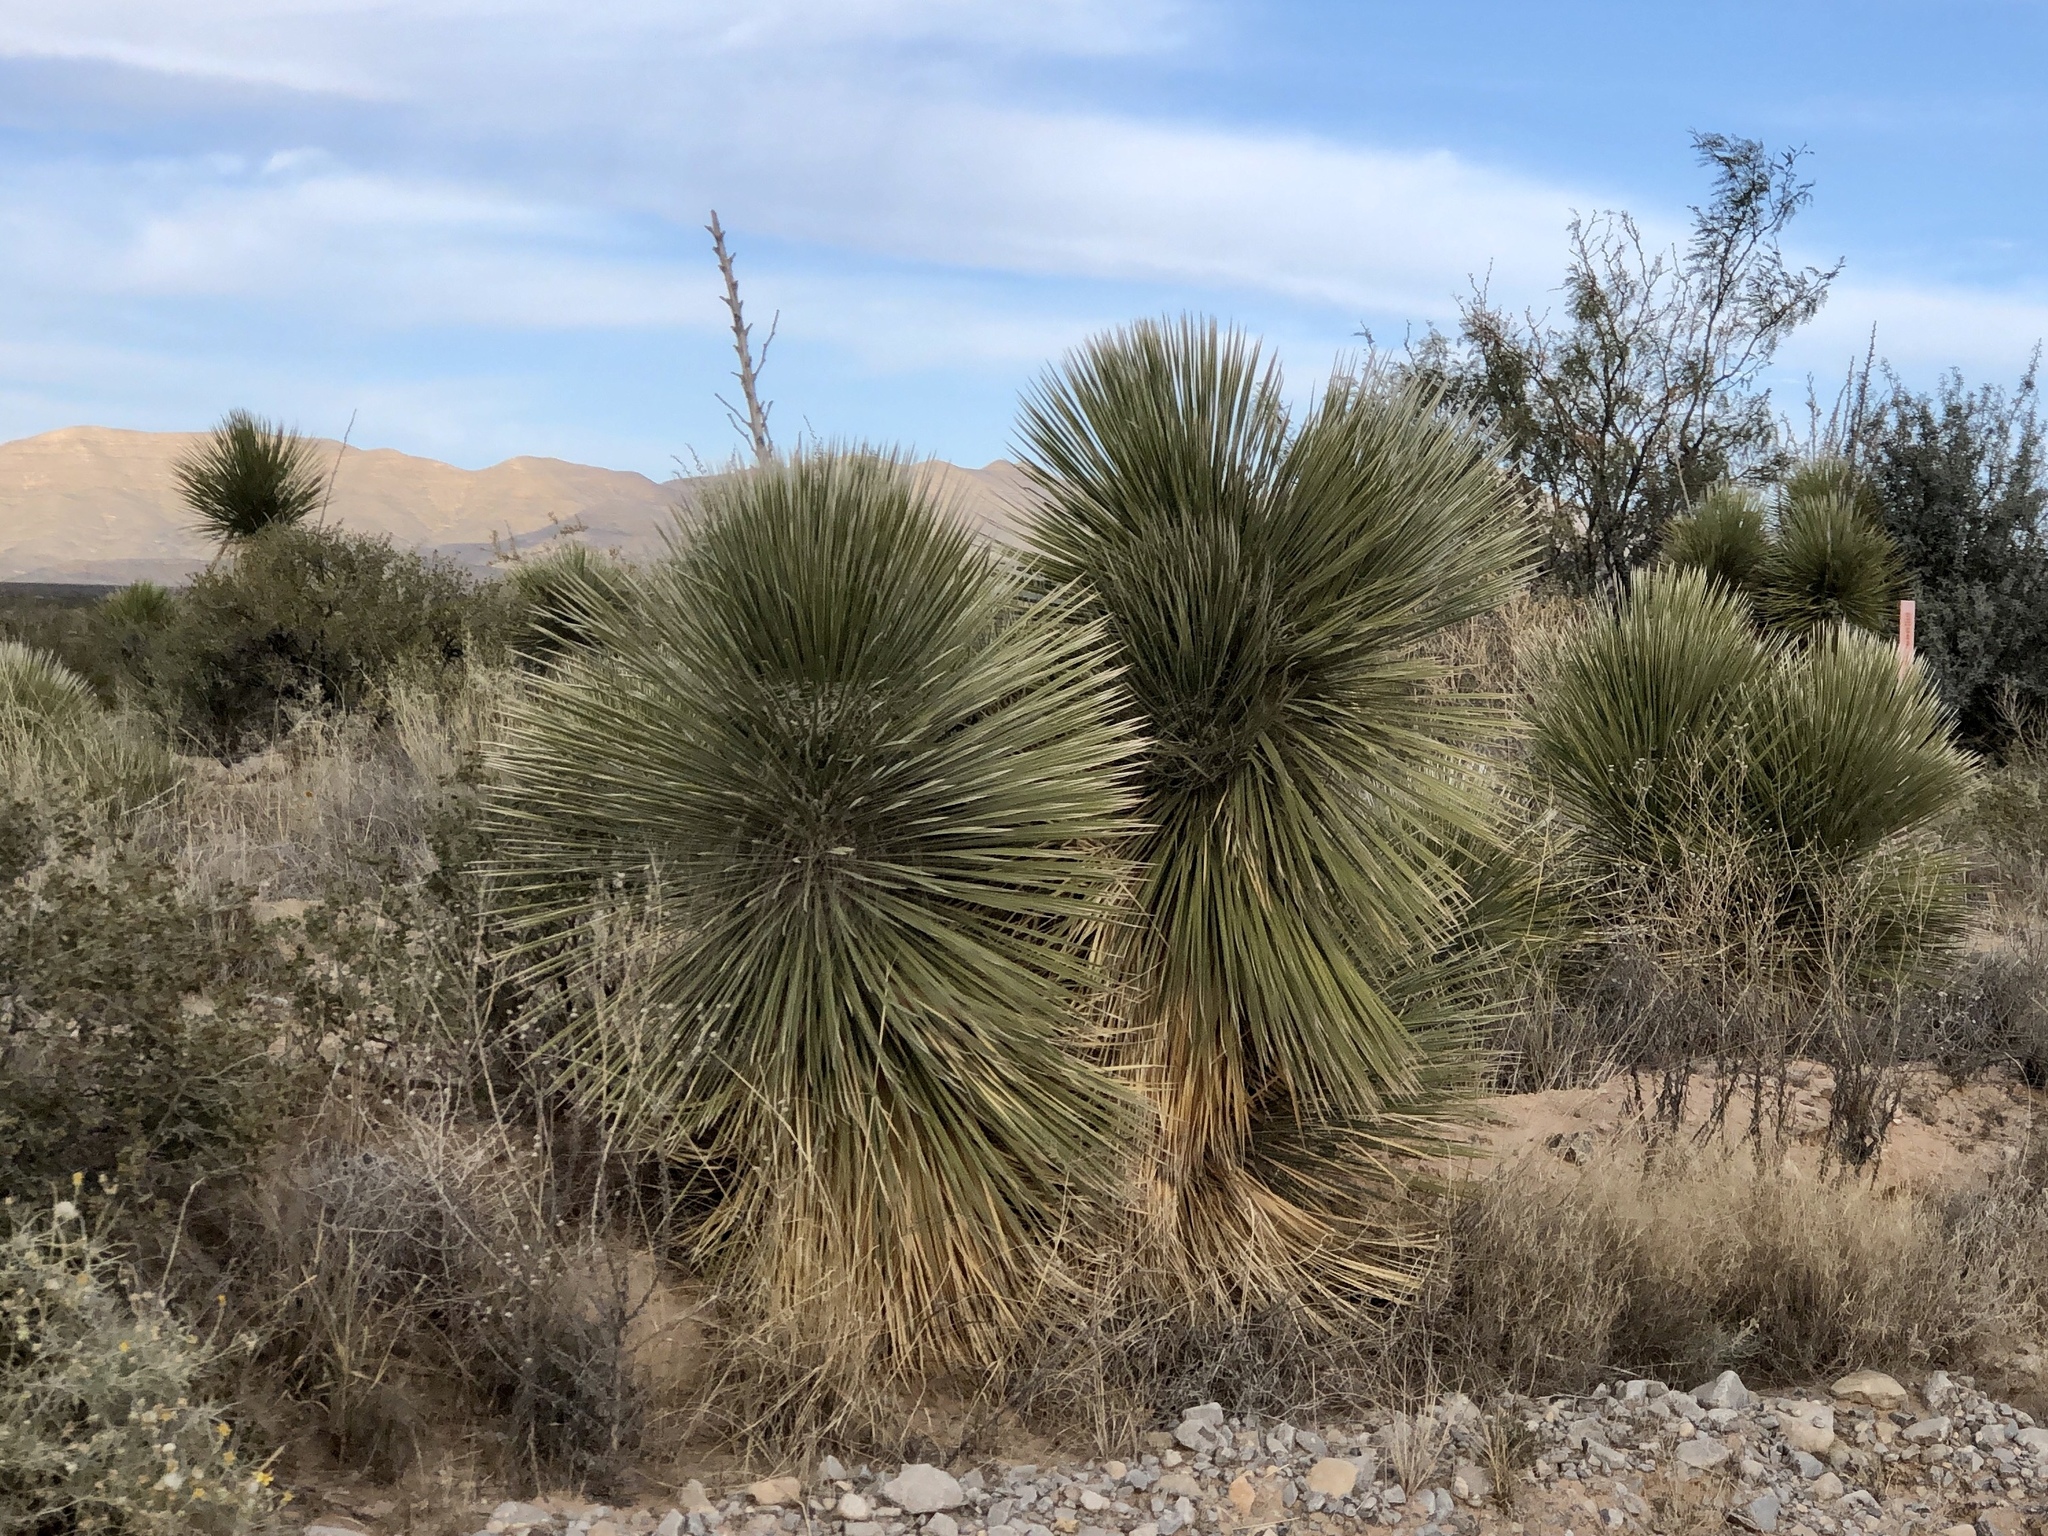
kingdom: Plantae
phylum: Tracheophyta
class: Liliopsida
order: Asparagales
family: Asparagaceae
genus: Yucca
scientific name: Yucca elata
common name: Palmella
